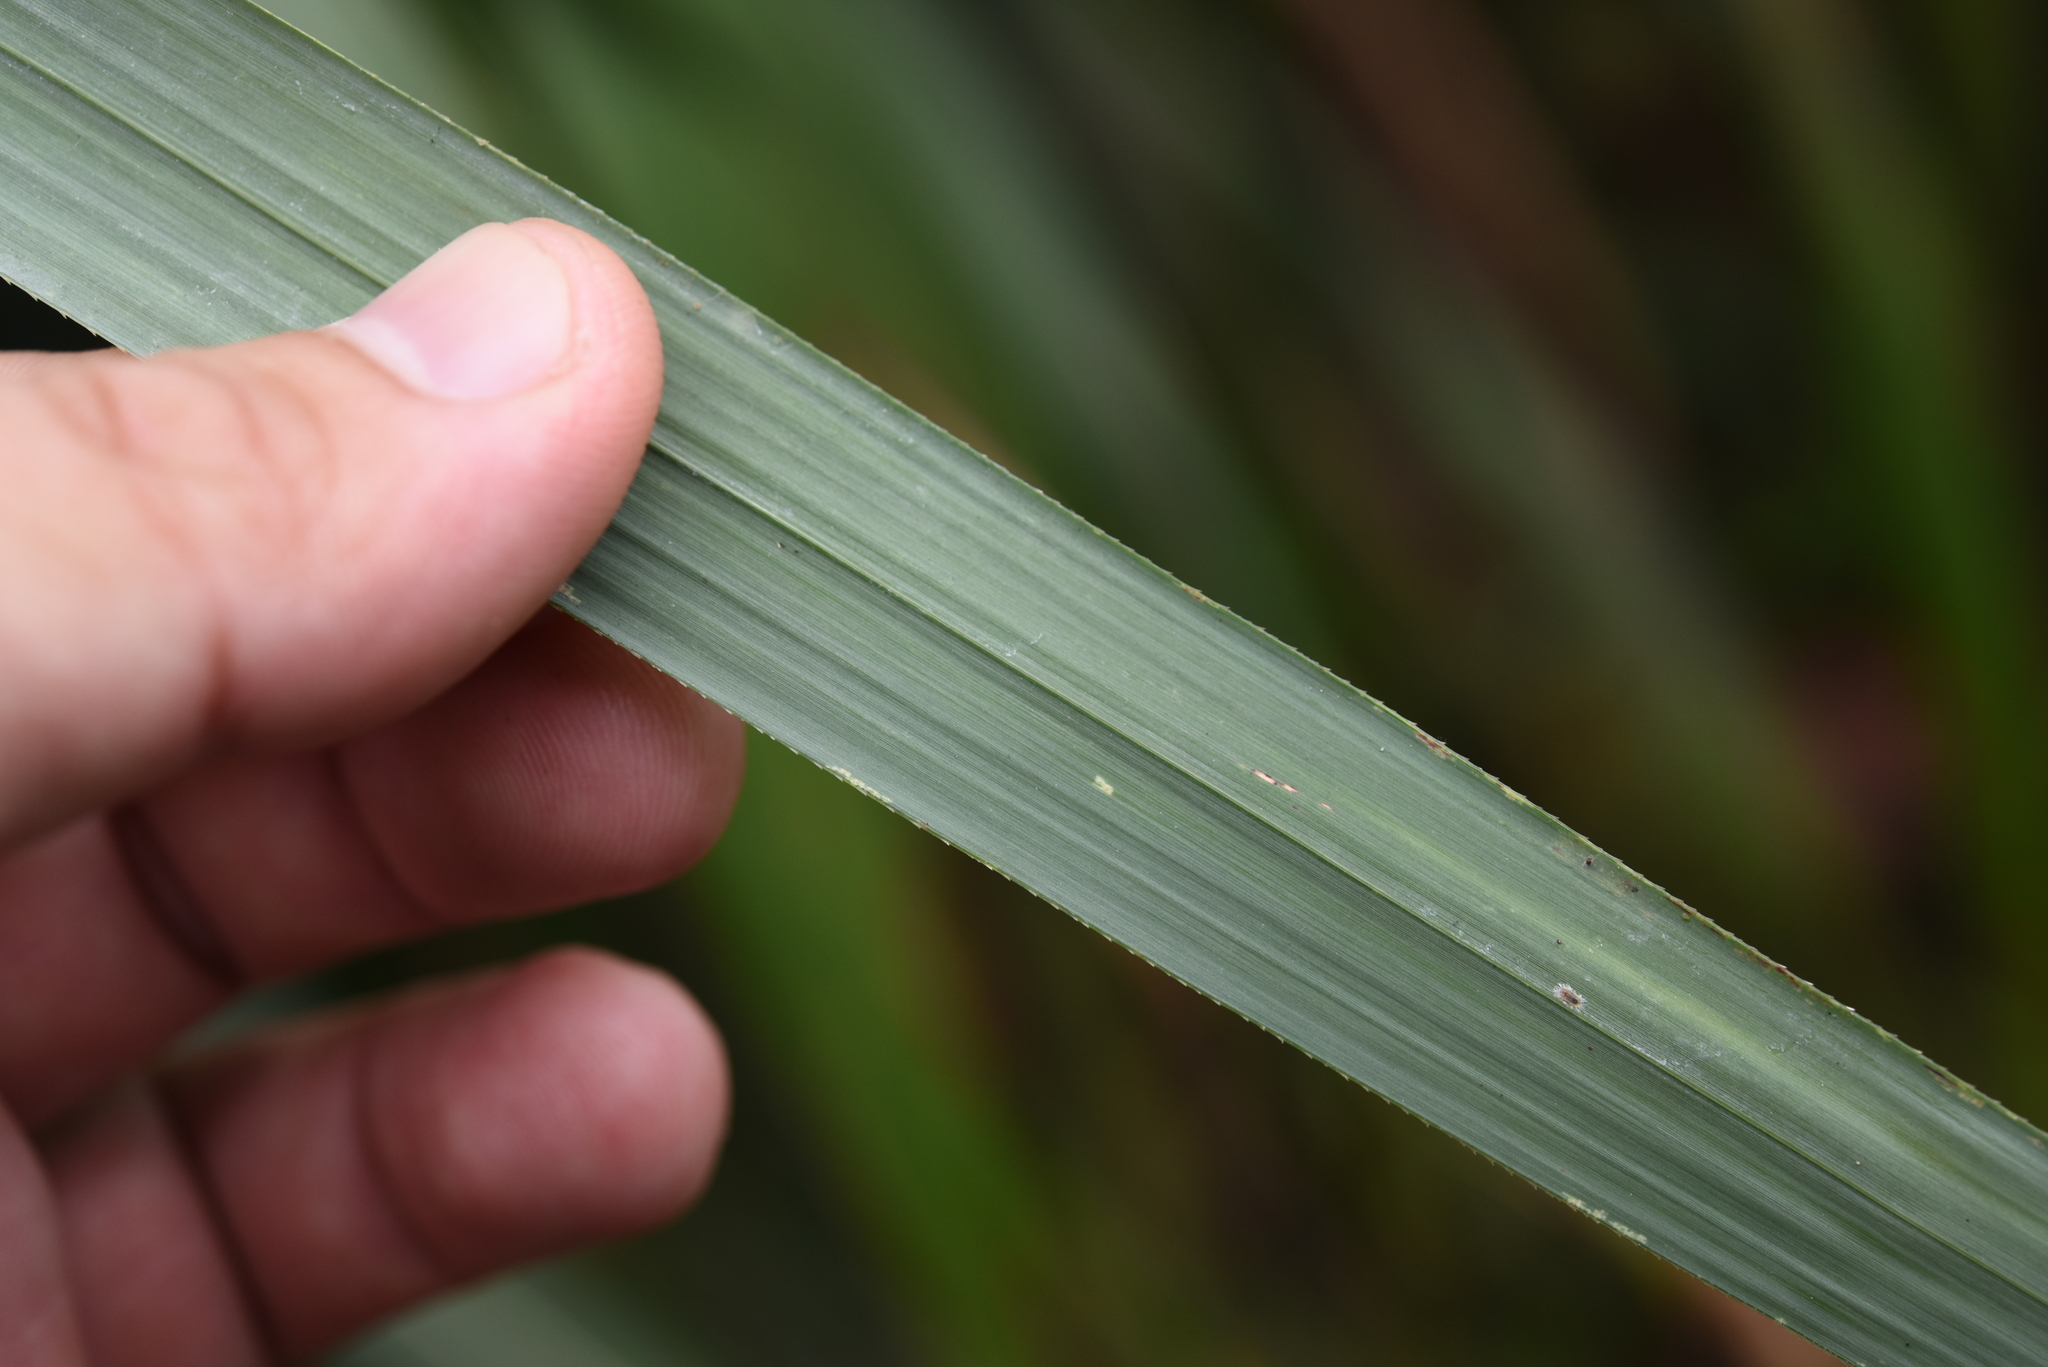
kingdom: Plantae
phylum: Tracheophyta
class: Liliopsida
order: Poales
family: Poaceae
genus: Miscanthus
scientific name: Miscanthus sinensis
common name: Chinese silvergrass
